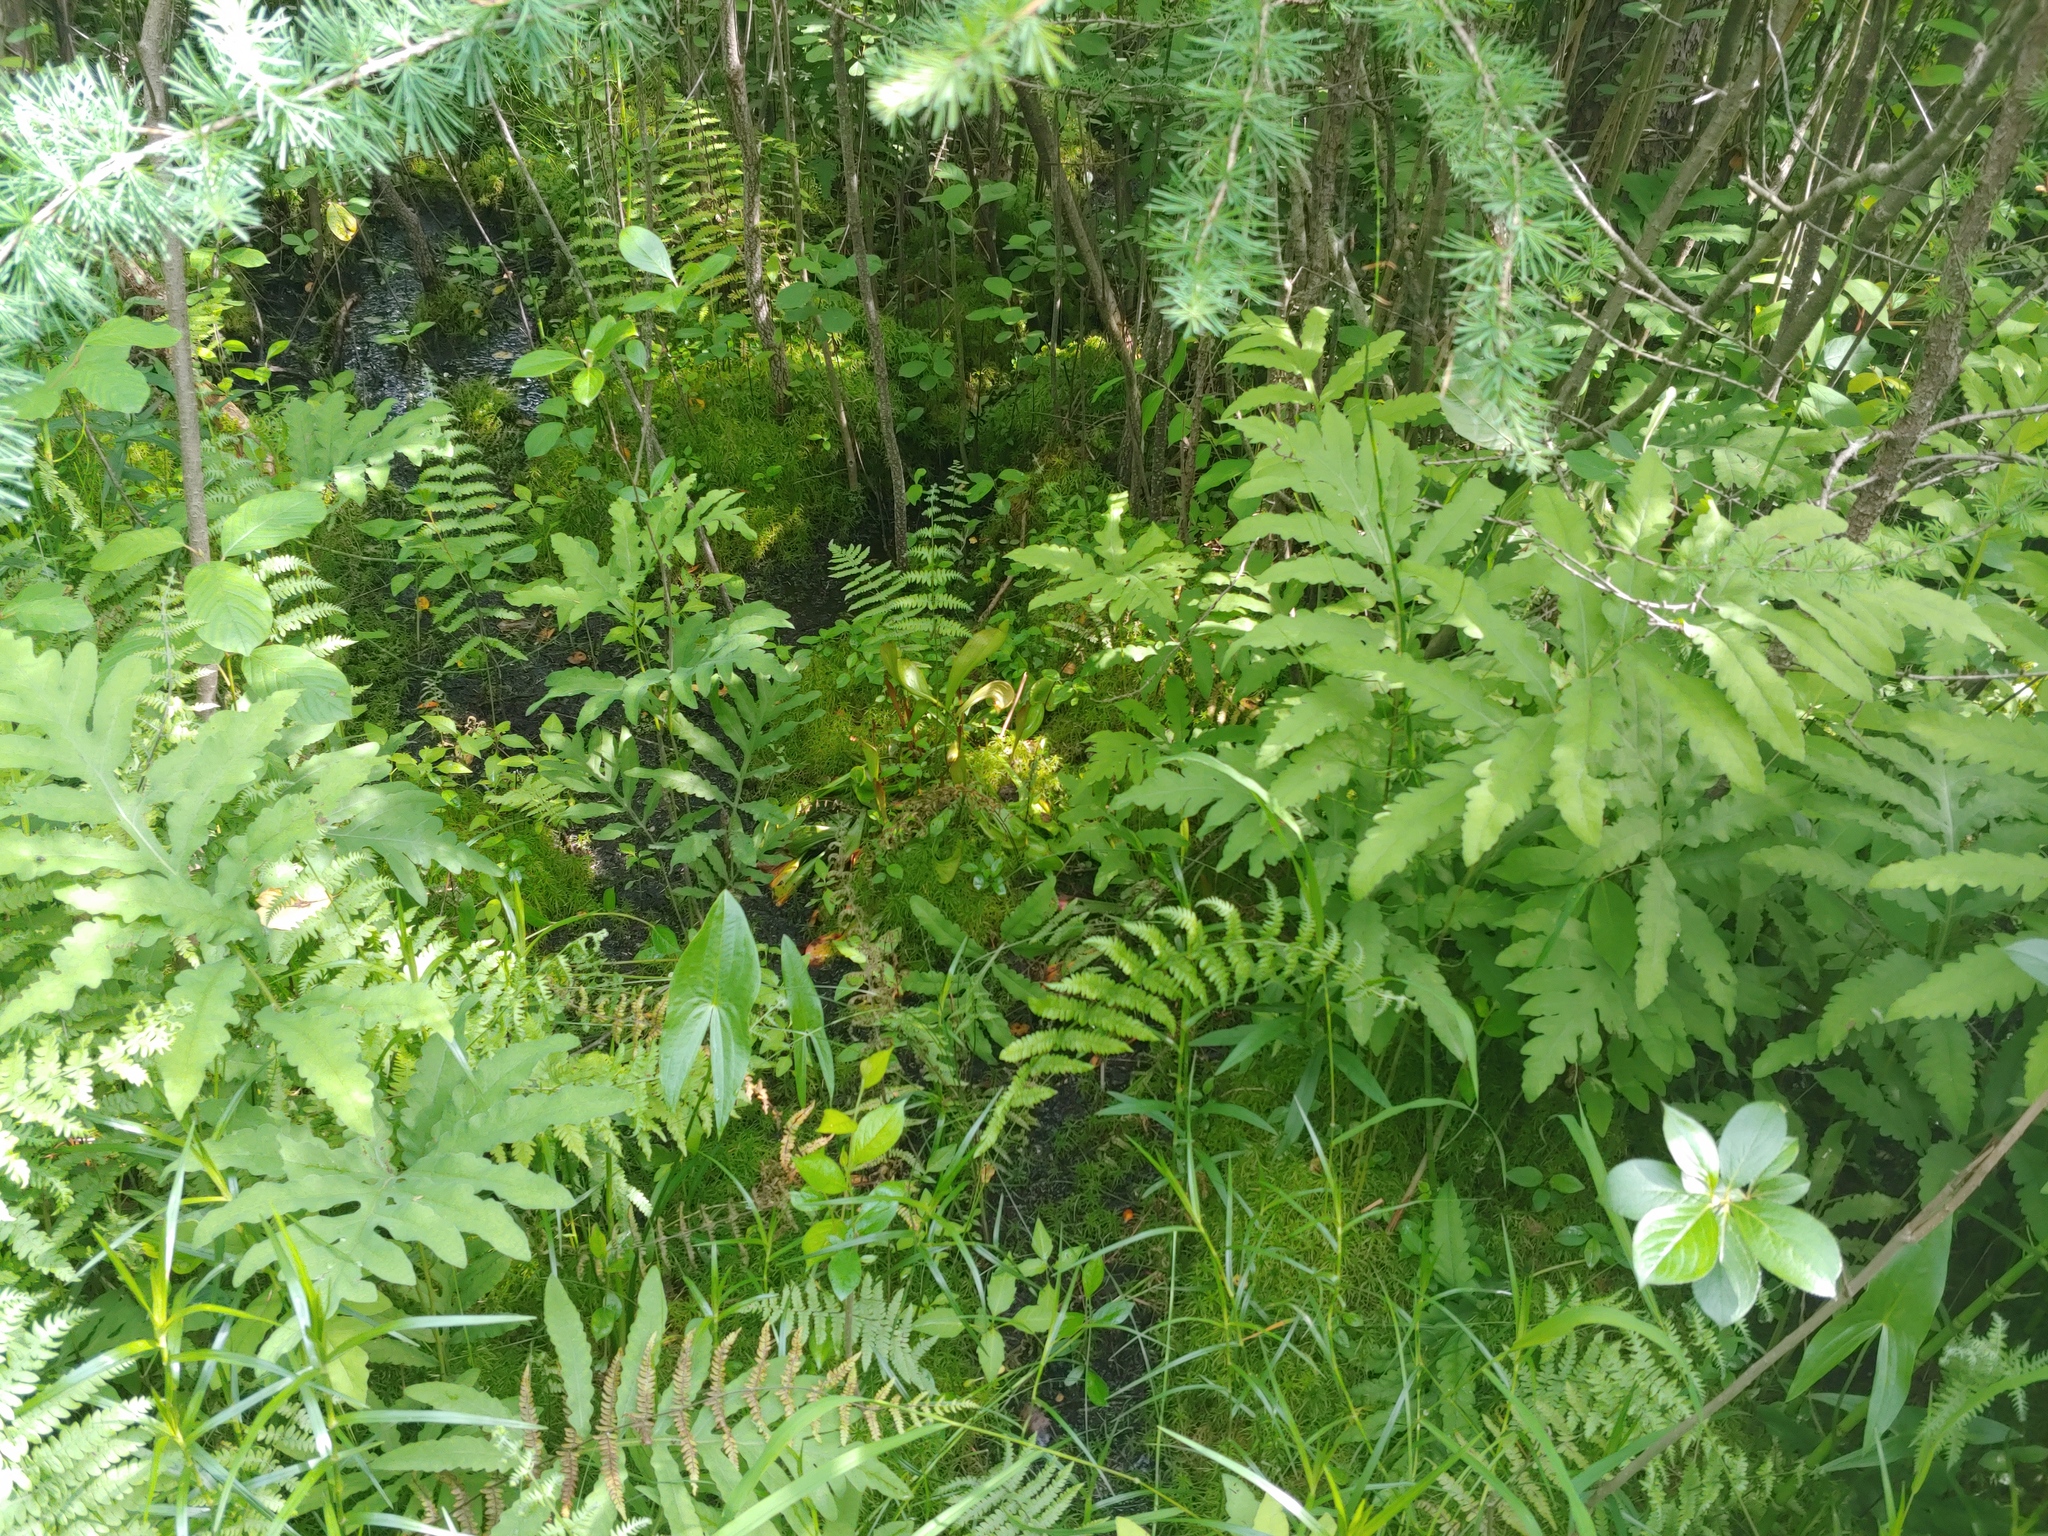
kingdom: Plantae
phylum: Tracheophyta
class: Pinopsida
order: Pinales
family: Pinaceae
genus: Larix
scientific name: Larix laricina
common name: American larch
